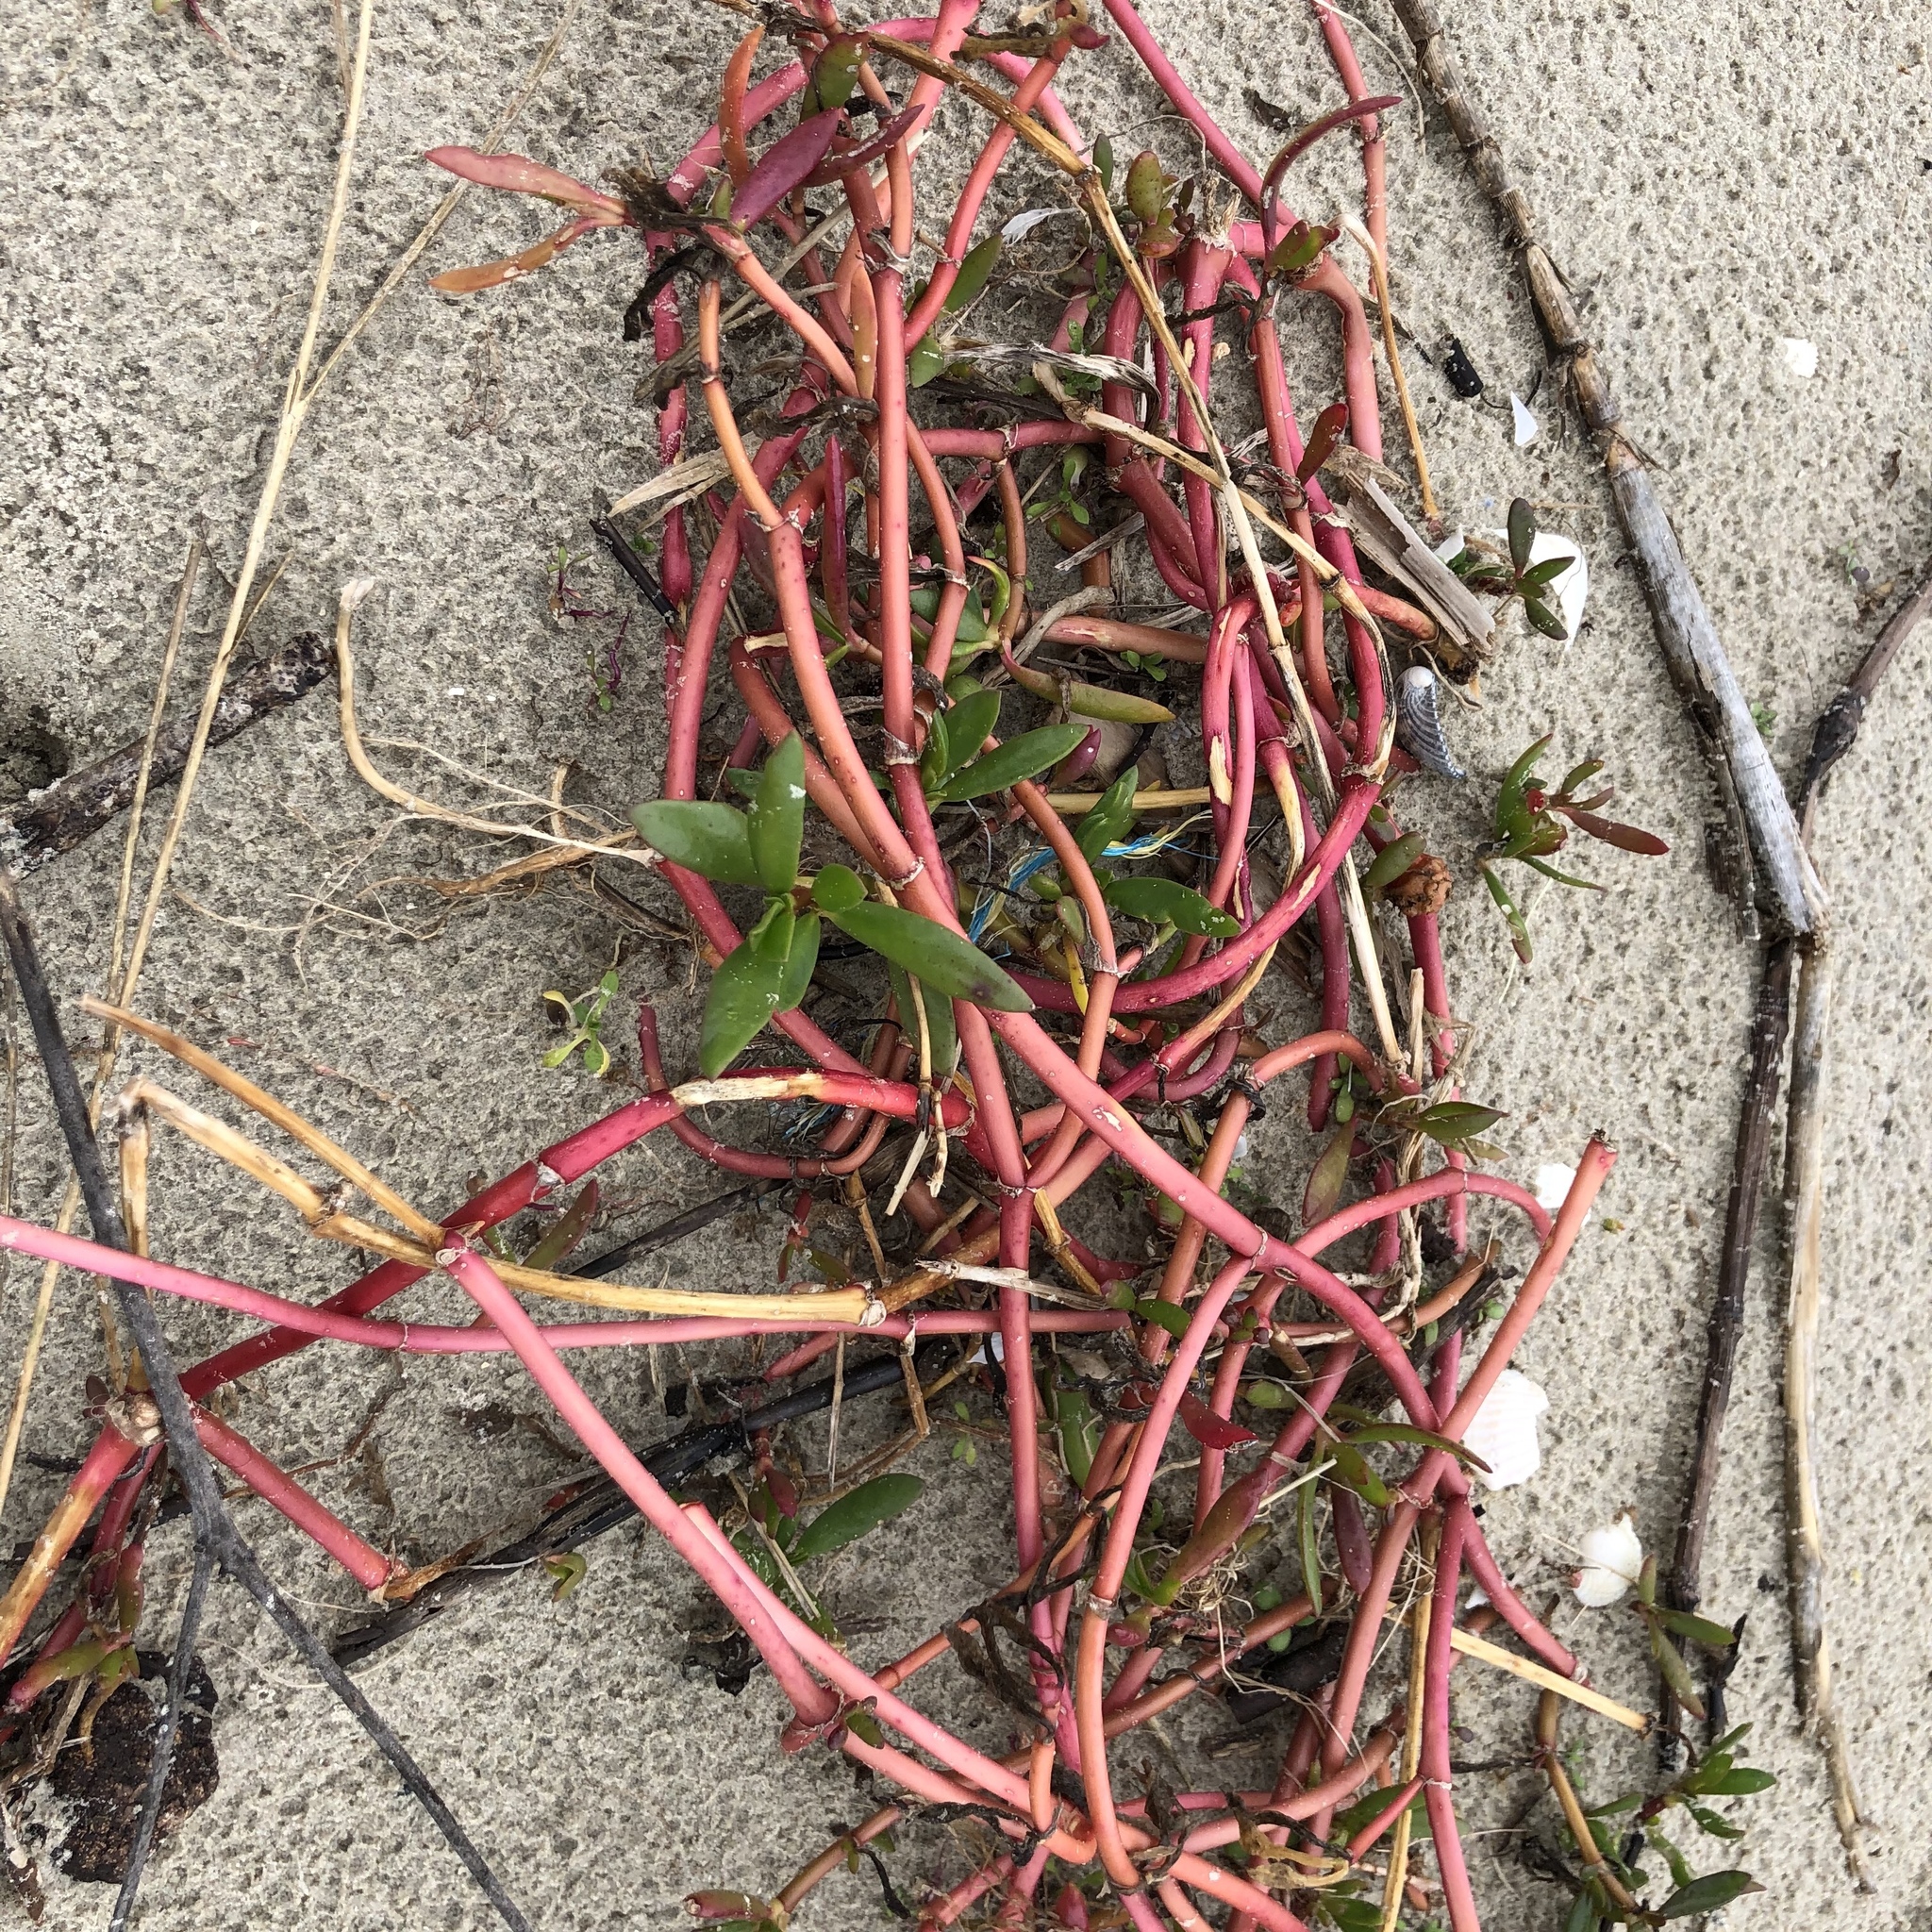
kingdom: Plantae
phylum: Tracheophyta
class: Magnoliopsida
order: Caryophyllales
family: Aizoaceae
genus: Sesuvium
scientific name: Sesuvium portulacastrum
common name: Sea-purslane
